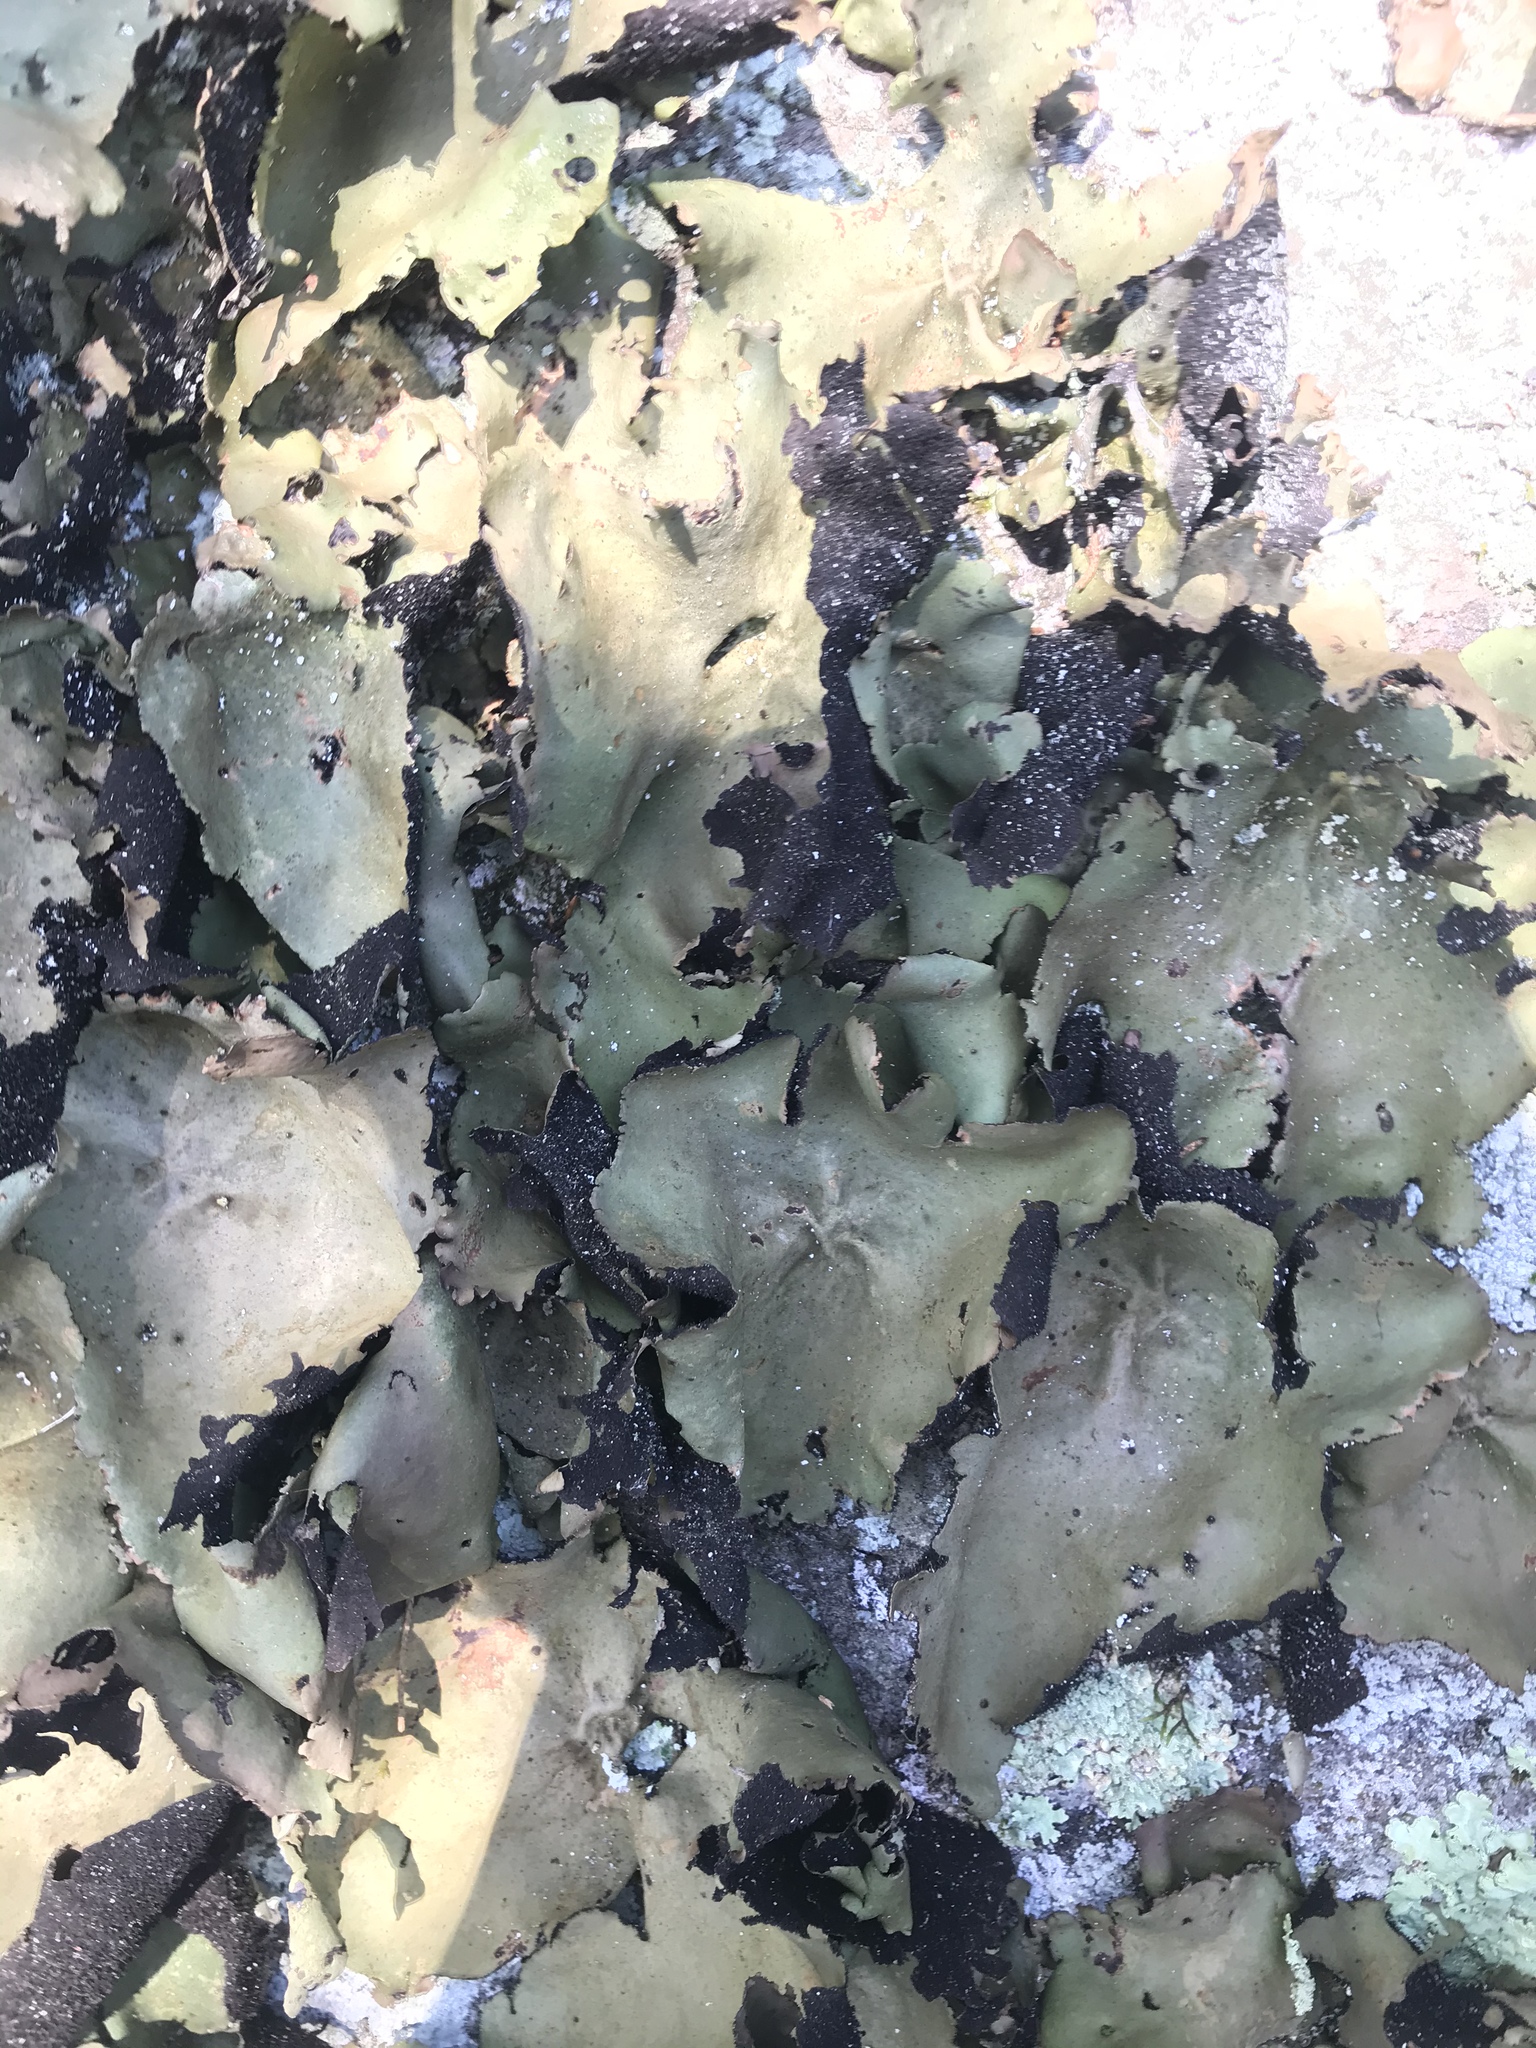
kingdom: Fungi
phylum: Ascomycota
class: Lecanoromycetes
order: Umbilicariales
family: Umbilicariaceae
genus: Umbilicaria
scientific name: Umbilicaria mammulata
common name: Smooth rock tripe
